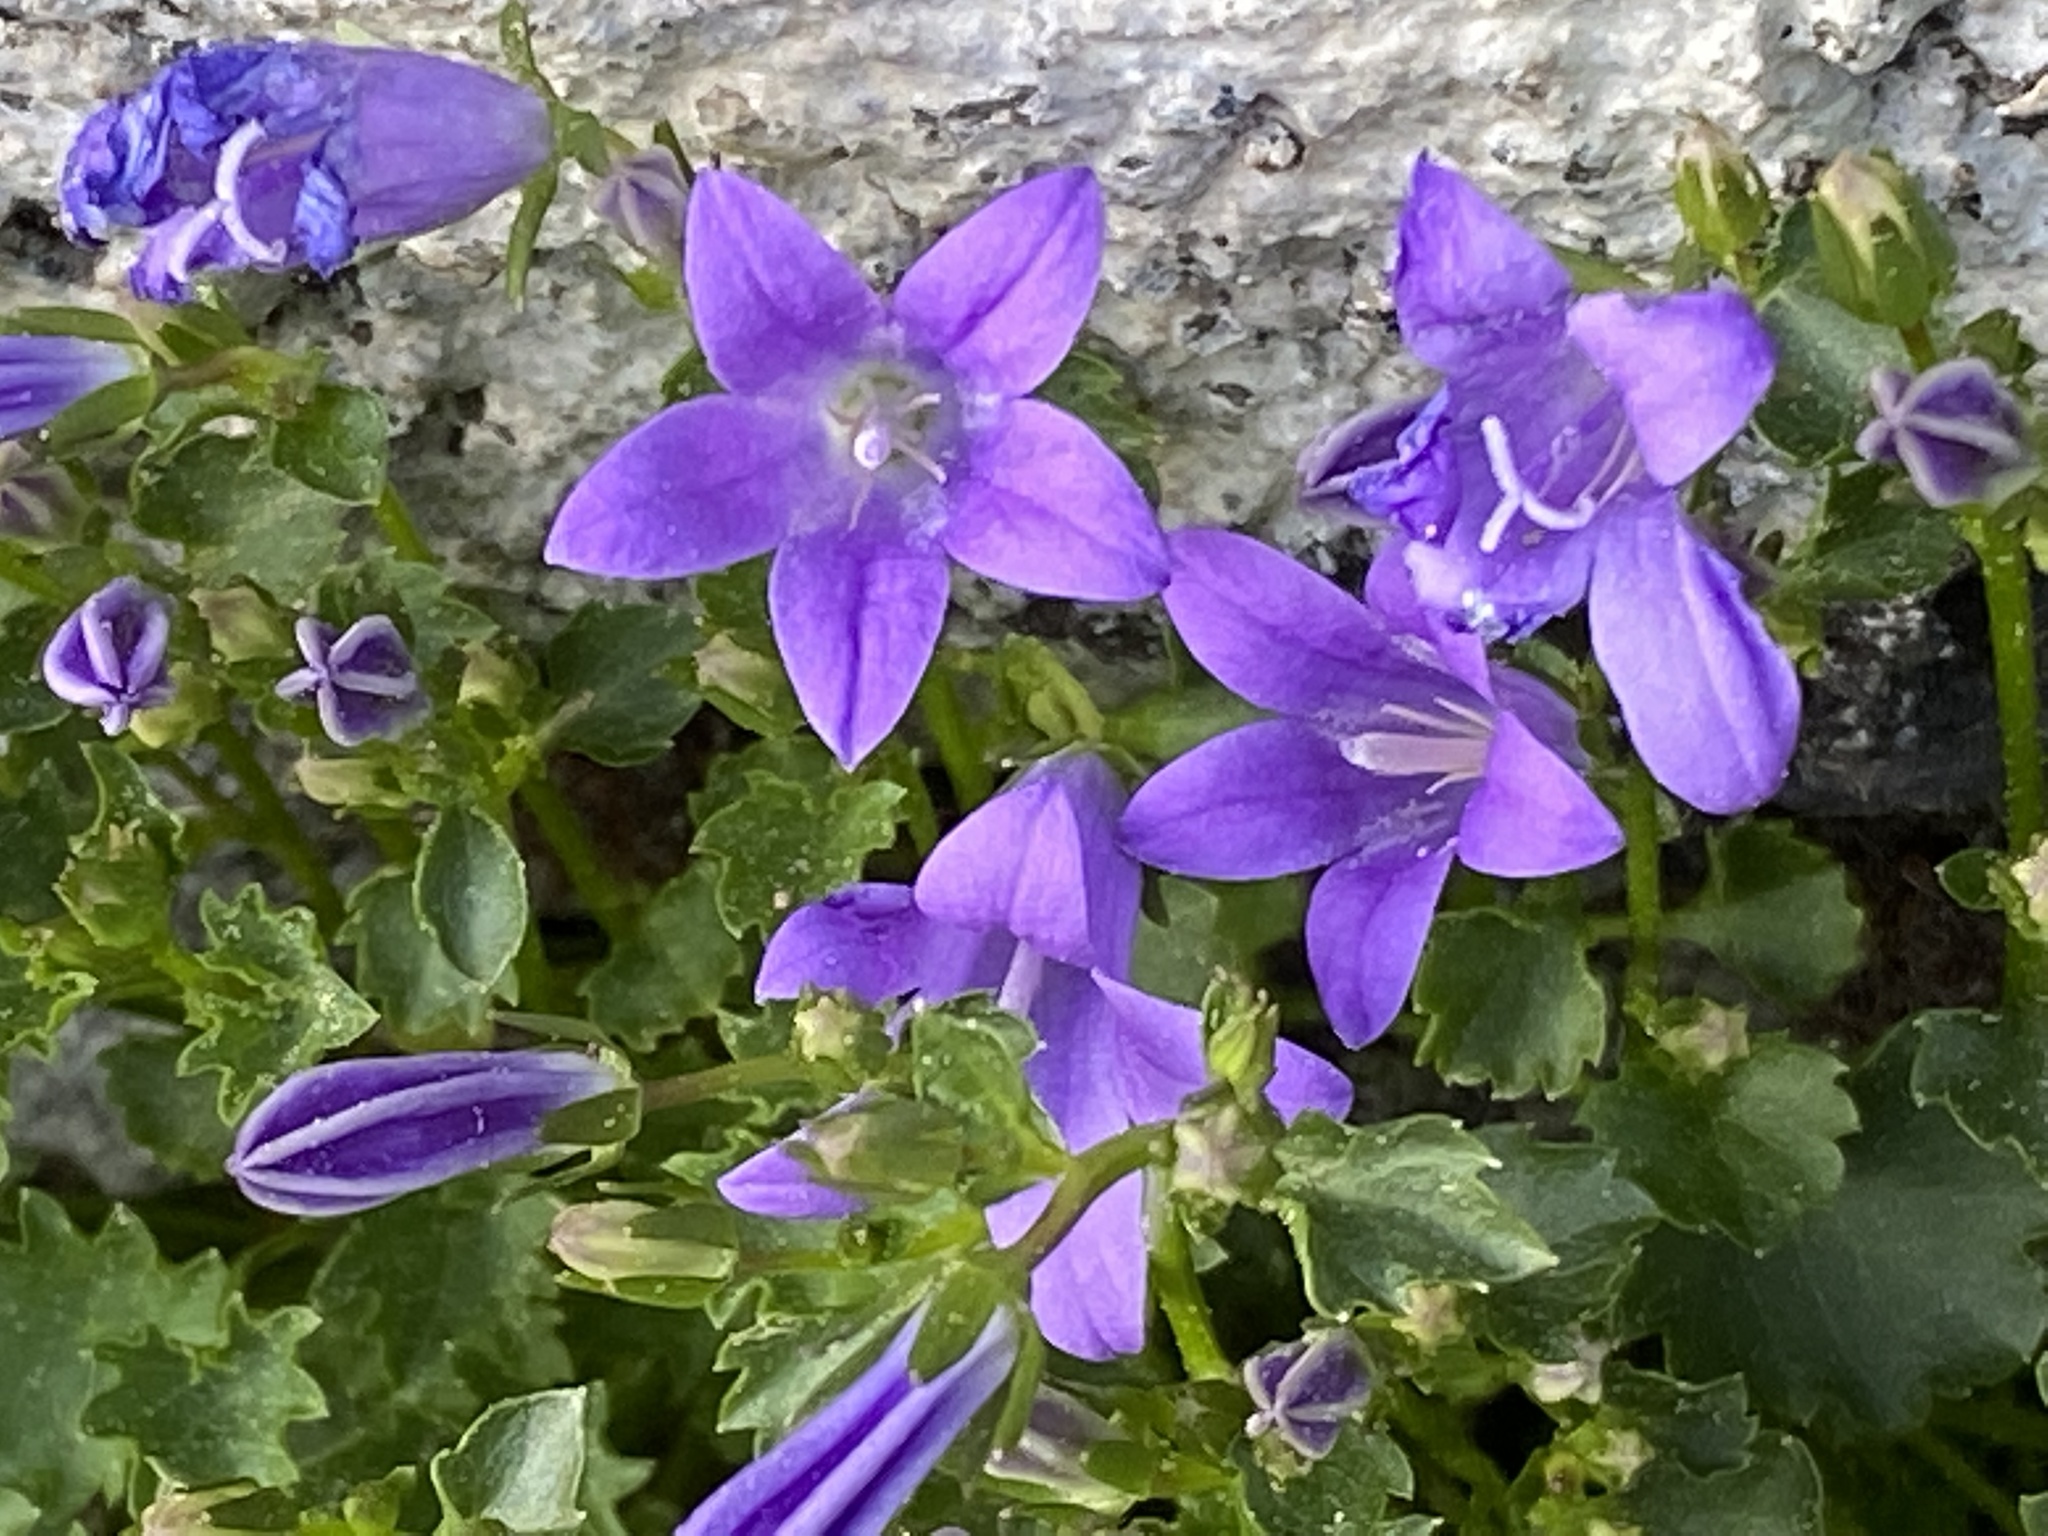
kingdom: Plantae
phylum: Tracheophyta
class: Magnoliopsida
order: Asterales
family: Campanulaceae
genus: Campanula
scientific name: Campanula poscharskyana
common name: Trailing bellflower
